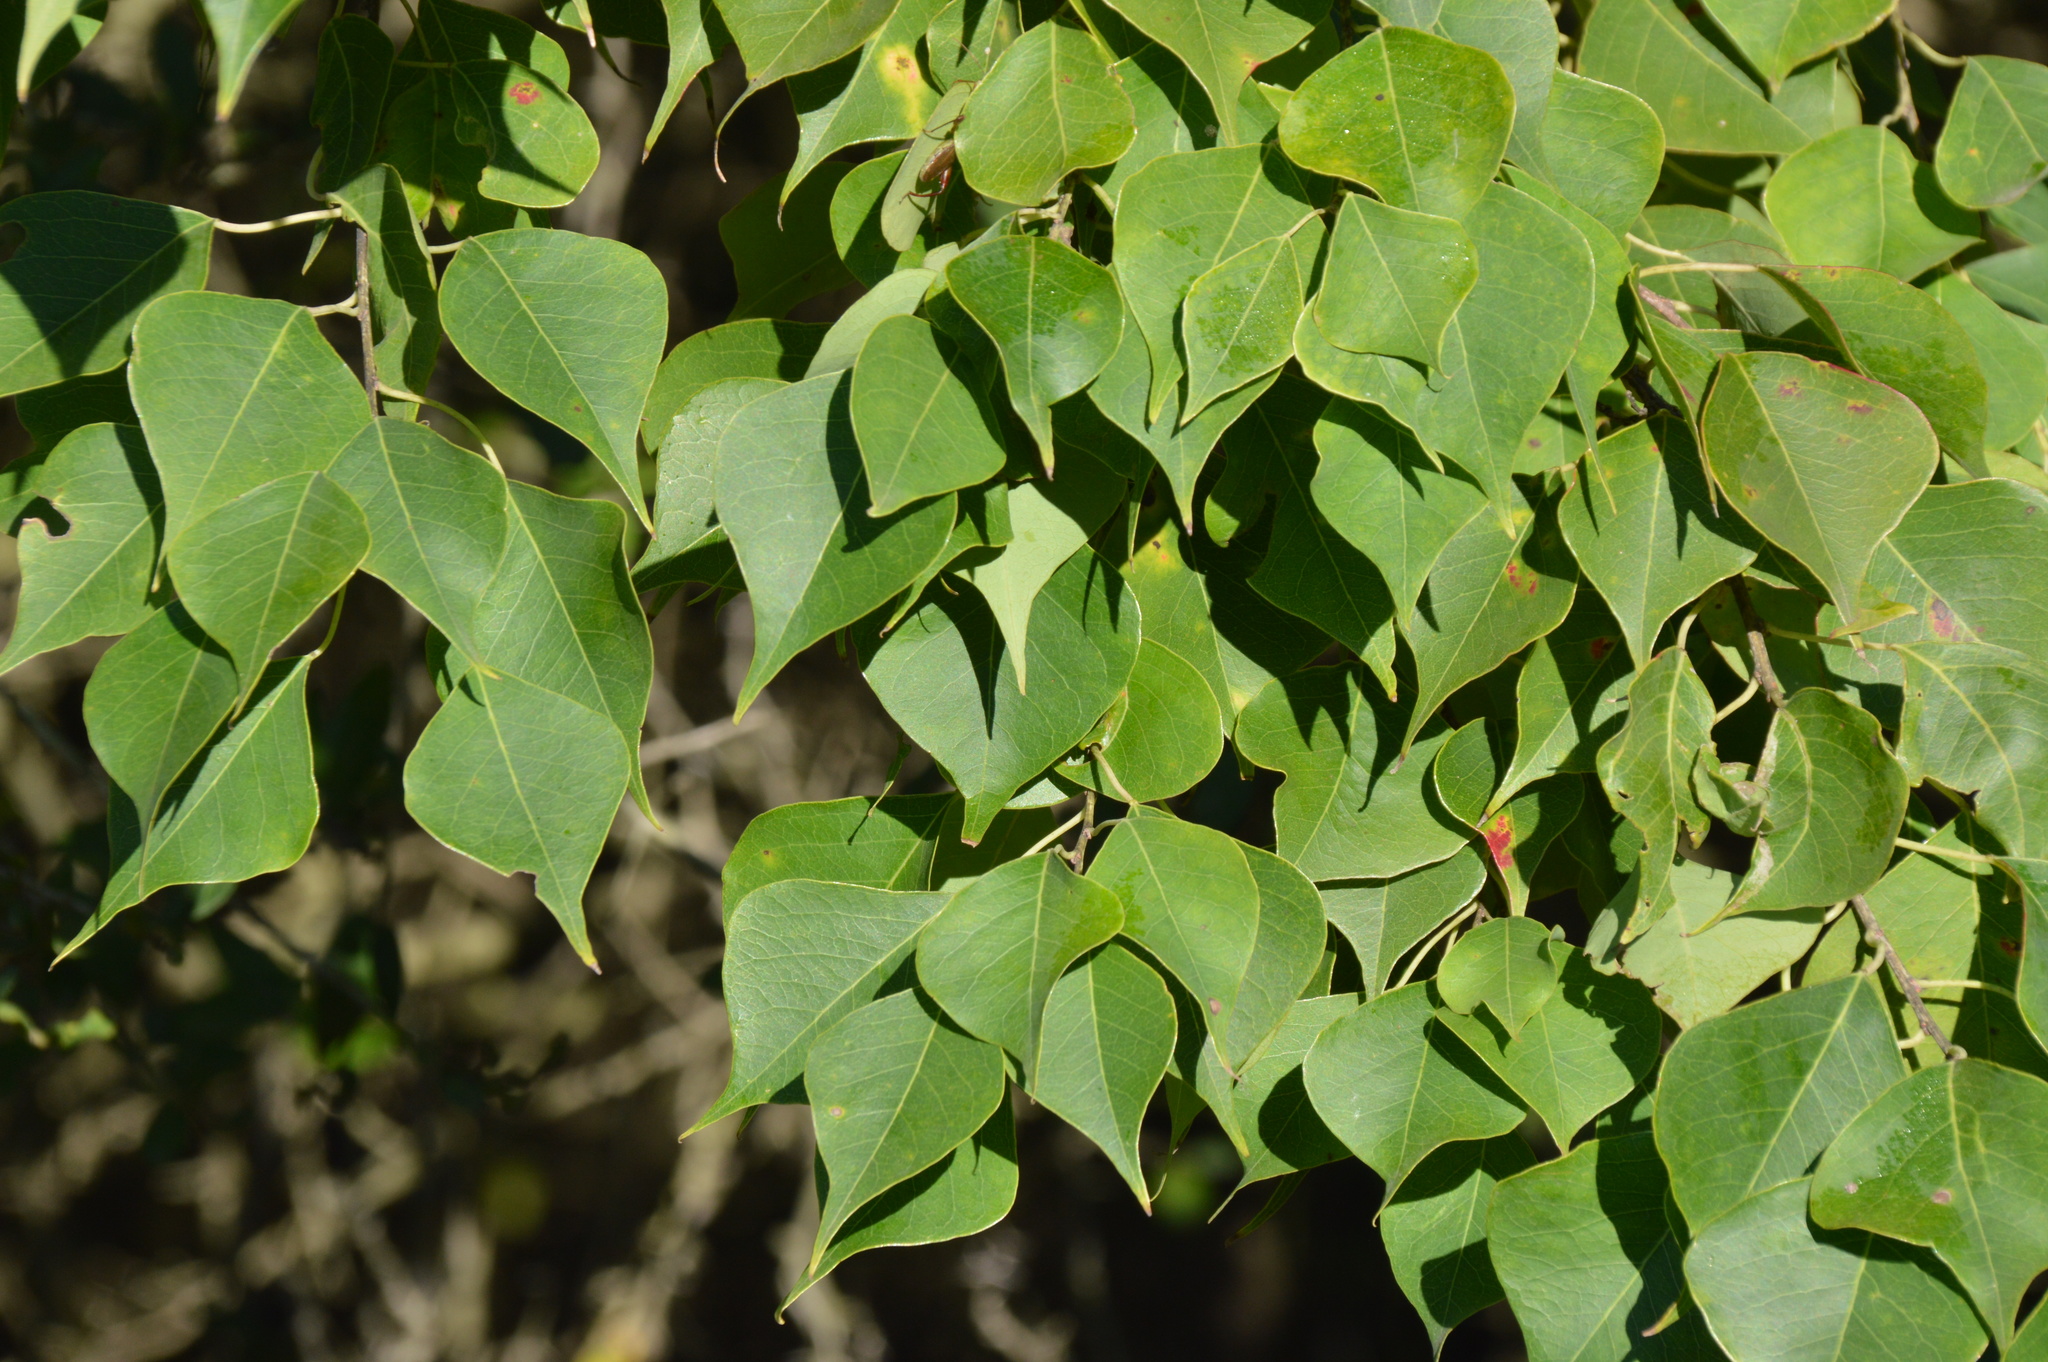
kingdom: Plantae
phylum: Tracheophyta
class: Magnoliopsida
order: Malpighiales
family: Euphorbiaceae
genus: Triadica
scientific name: Triadica sebifera
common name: Chinese tallow
